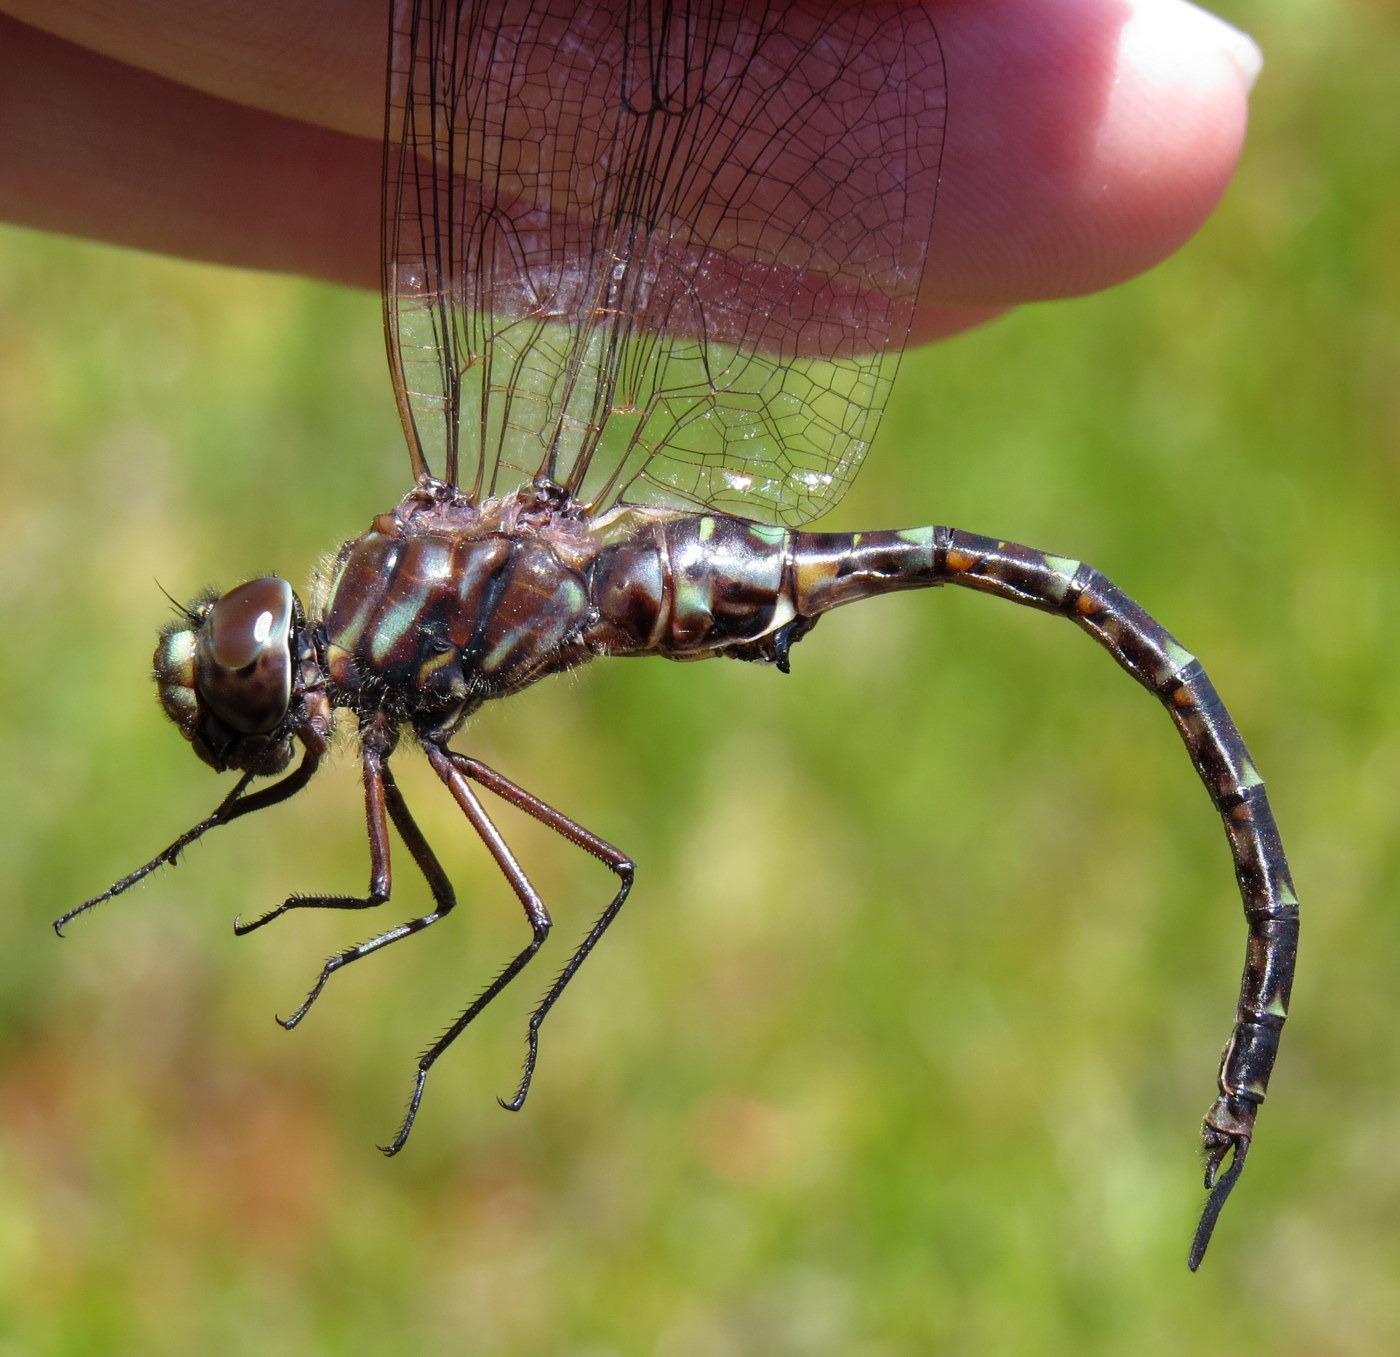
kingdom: Animalia
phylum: Arthropoda
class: Insecta
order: Odonata
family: Aeshnidae
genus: Gomphaeschna
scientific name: Gomphaeschna antilope
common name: Taper-tailed darner
